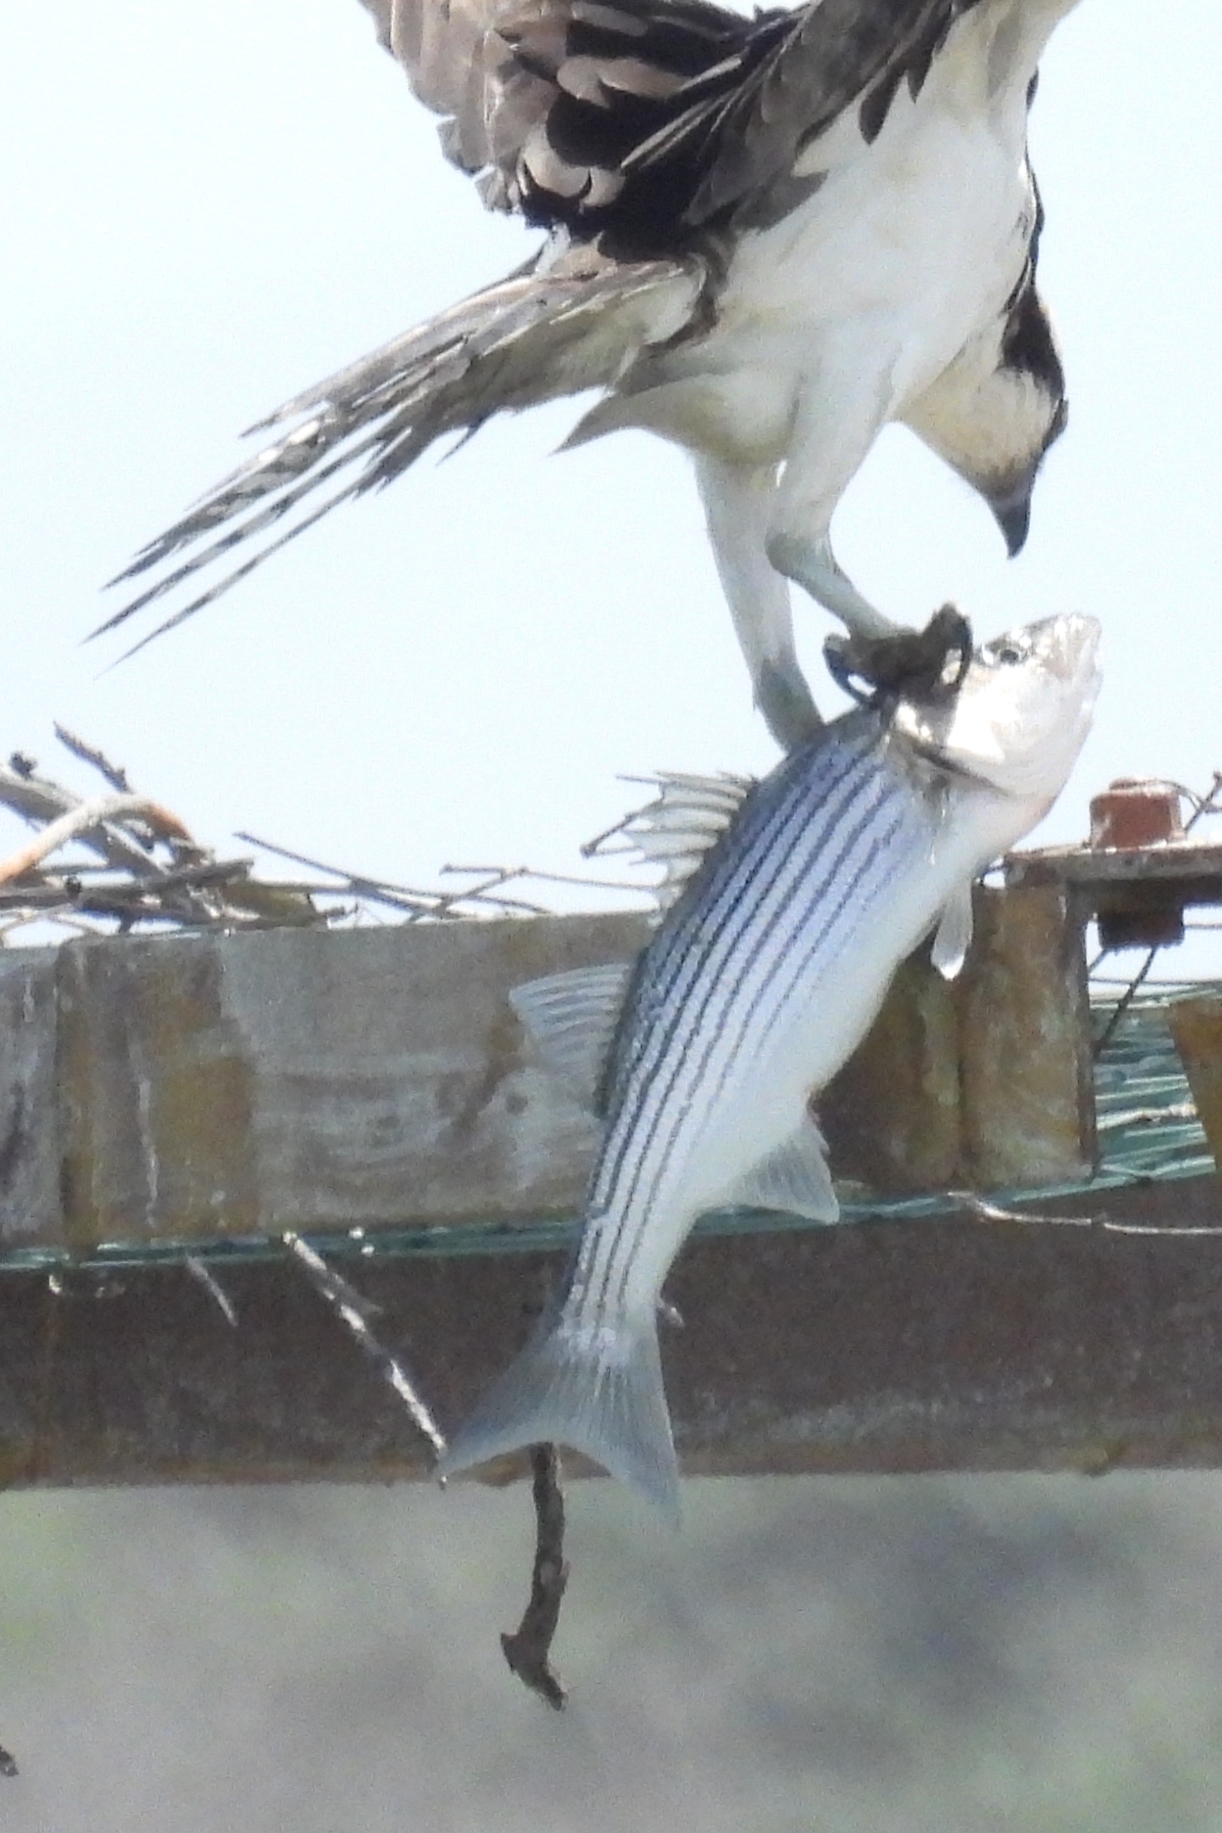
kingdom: Animalia
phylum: Chordata
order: Perciformes
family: Moronidae
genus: Morone
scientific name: Morone saxatilis
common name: Striped bass
